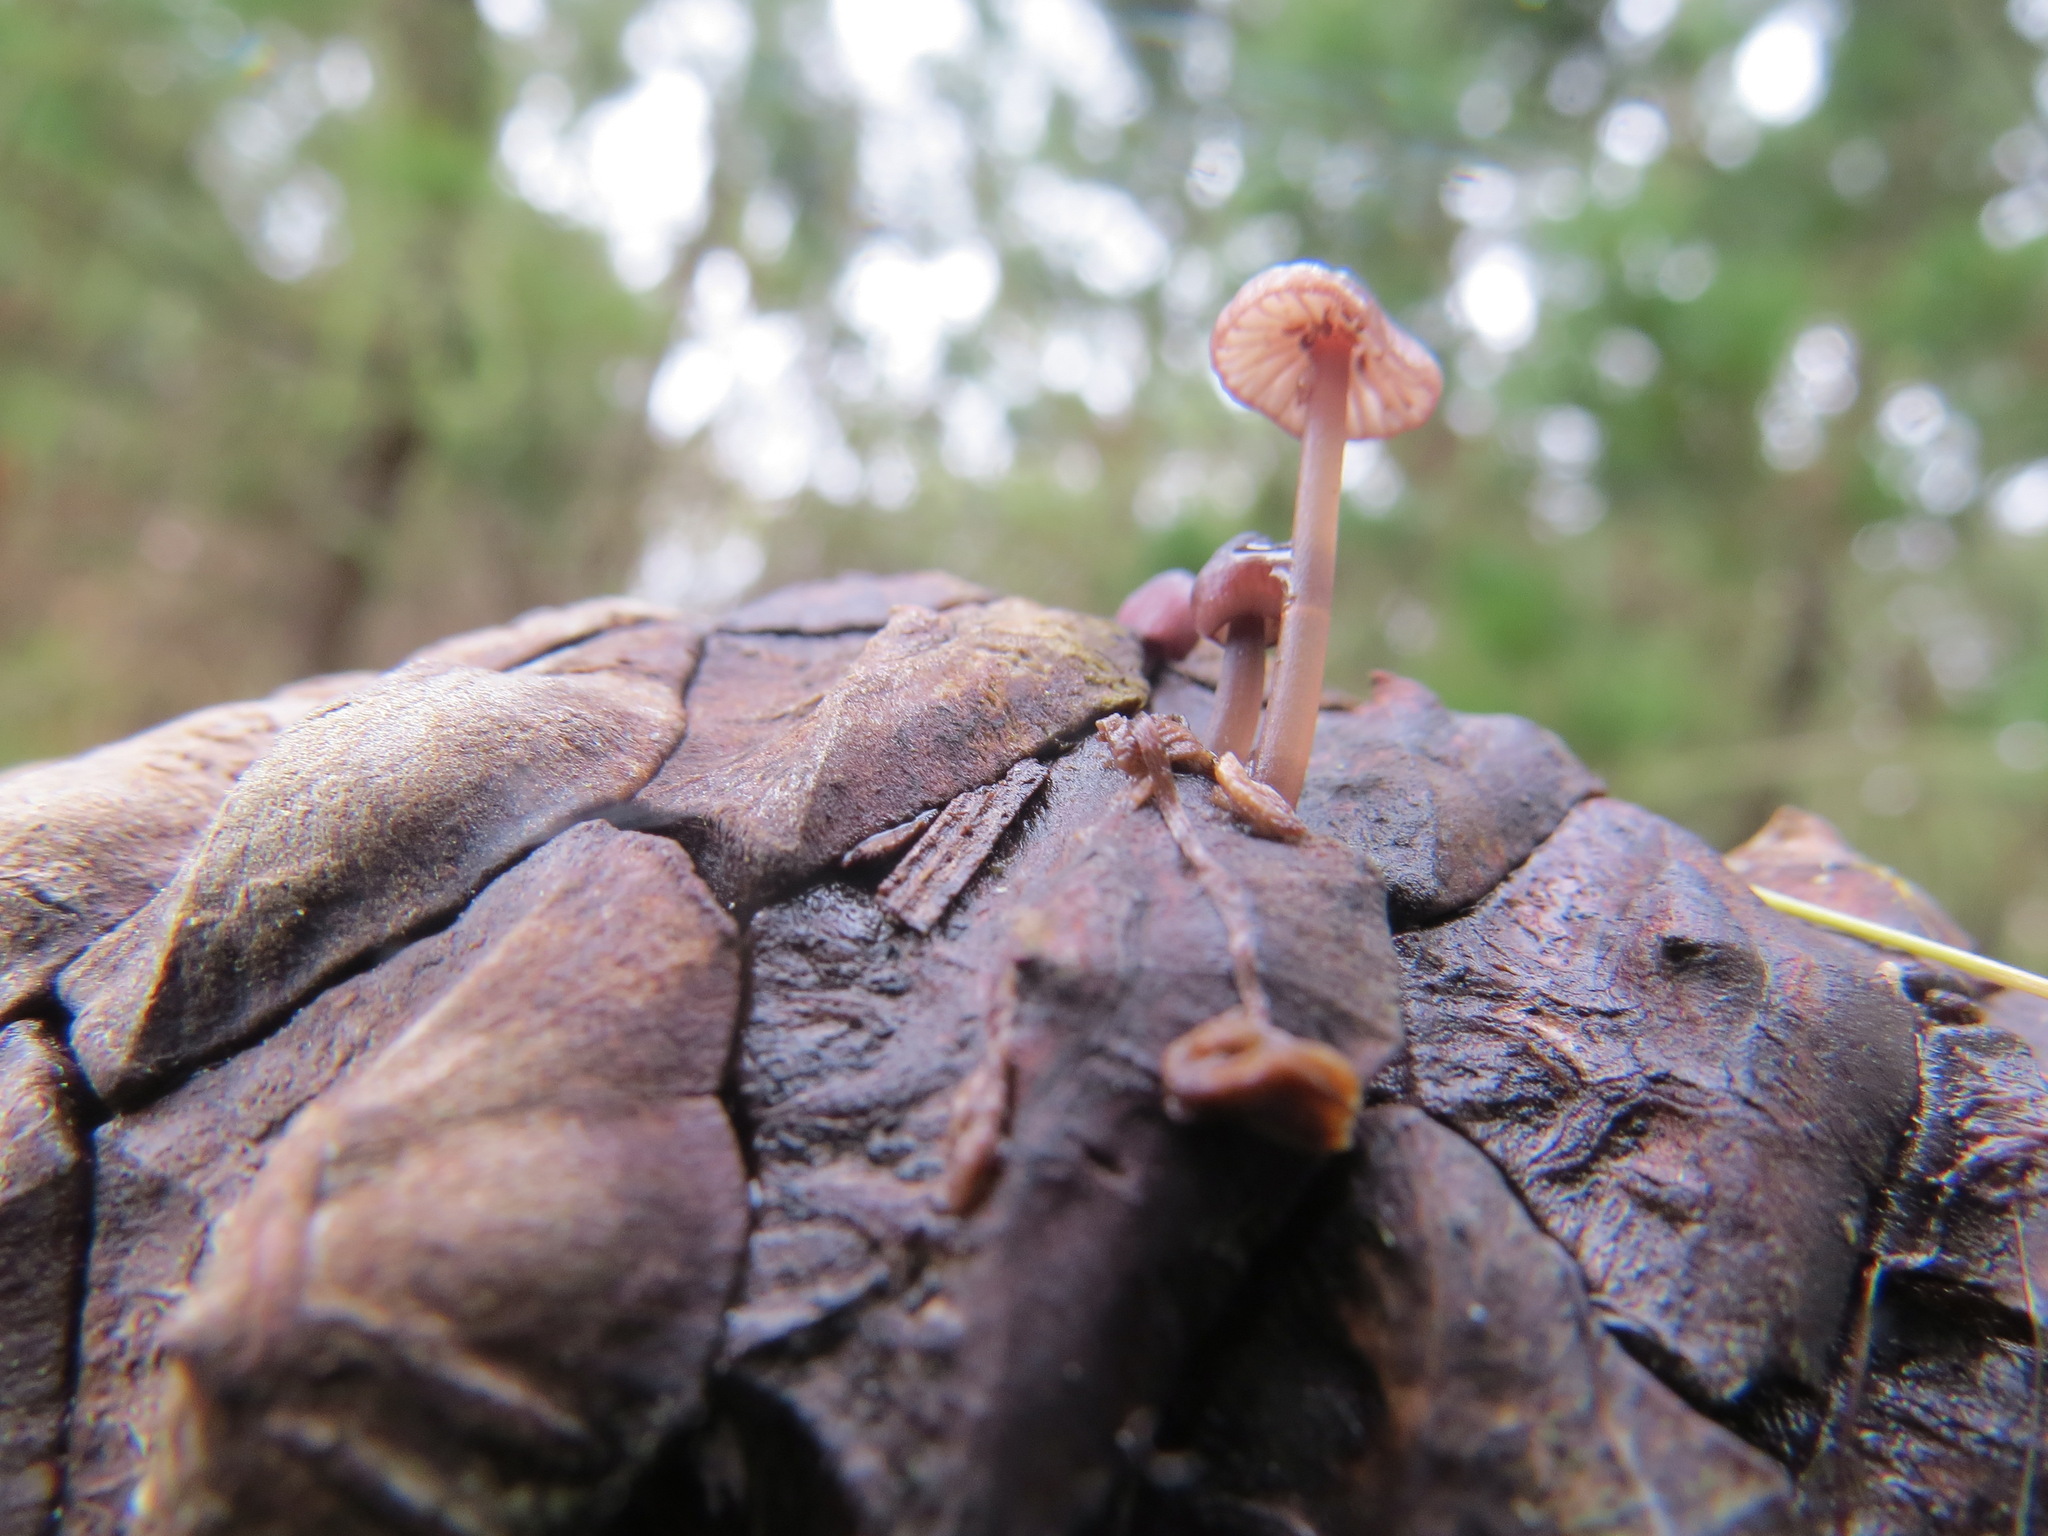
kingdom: Fungi
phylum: Basidiomycota
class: Agaricomycetes
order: Agaricales
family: Mycenaceae
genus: Mycena
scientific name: Mycena purpureofusca
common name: Purple edge bonnet
